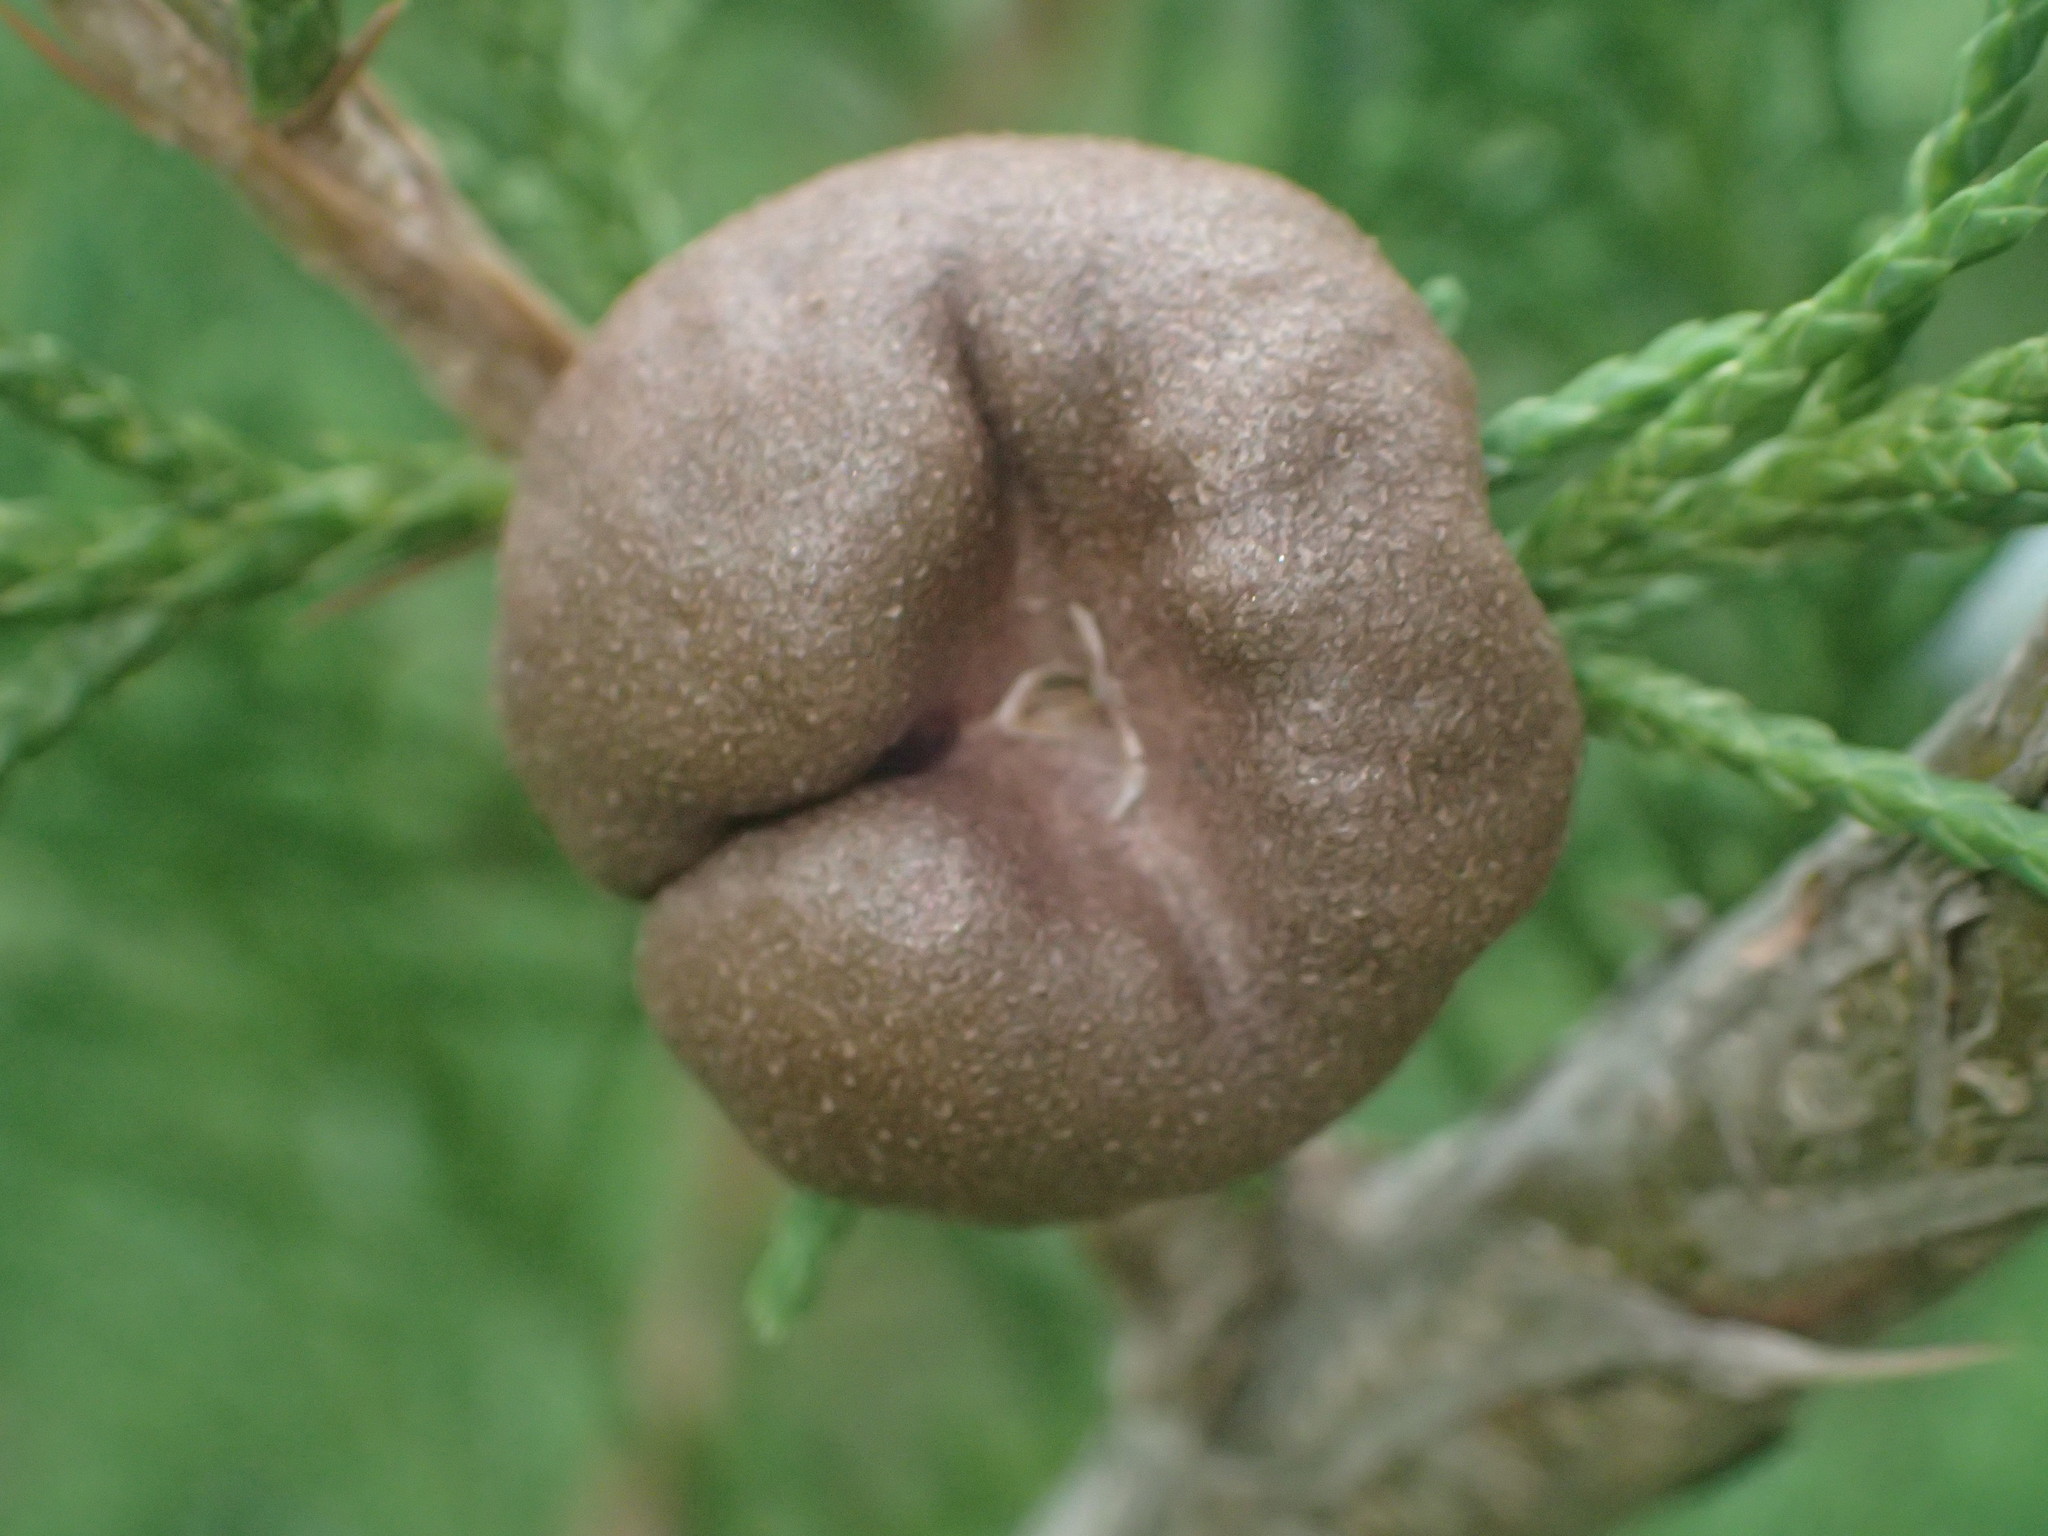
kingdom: Fungi
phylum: Basidiomycota
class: Pucciniomycetes
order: Pucciniales
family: Gymnosporangiaceae
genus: Gymnosporangium
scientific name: Gymnosporangium juniperi-virginianae
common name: Juniper-apple rust
